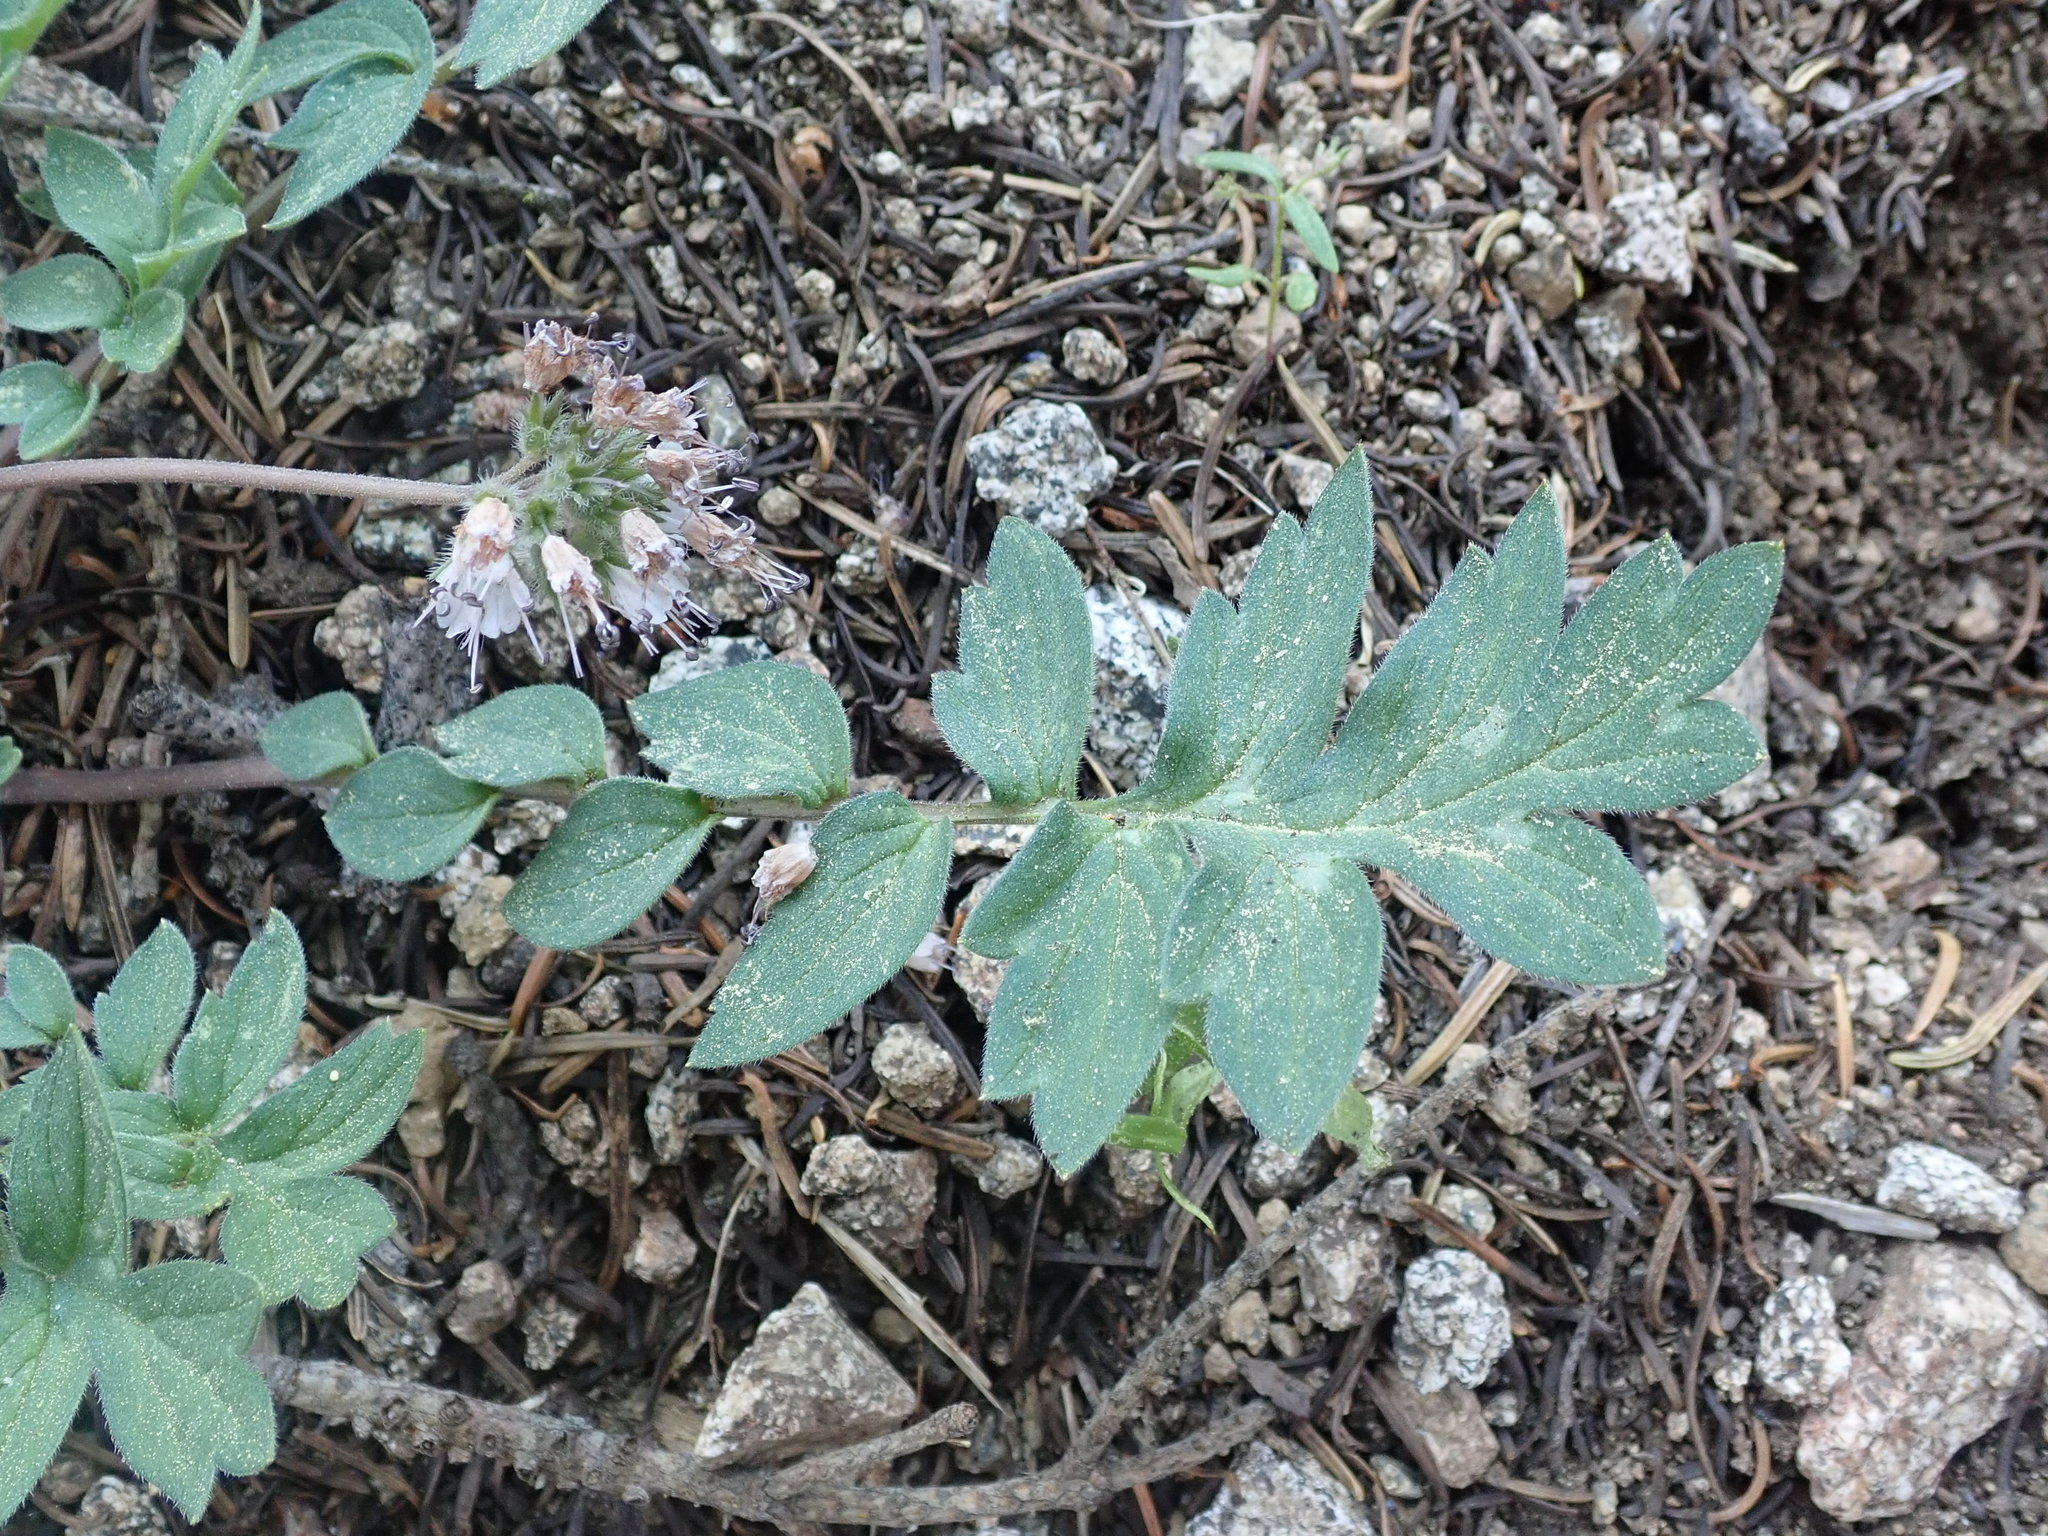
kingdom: Plantae
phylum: Tracheophyta
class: Magnoliopsida
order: Boraginales
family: Hydrophyllaceae
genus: Hydrophyllum
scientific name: Hydrophyllum occidentale
